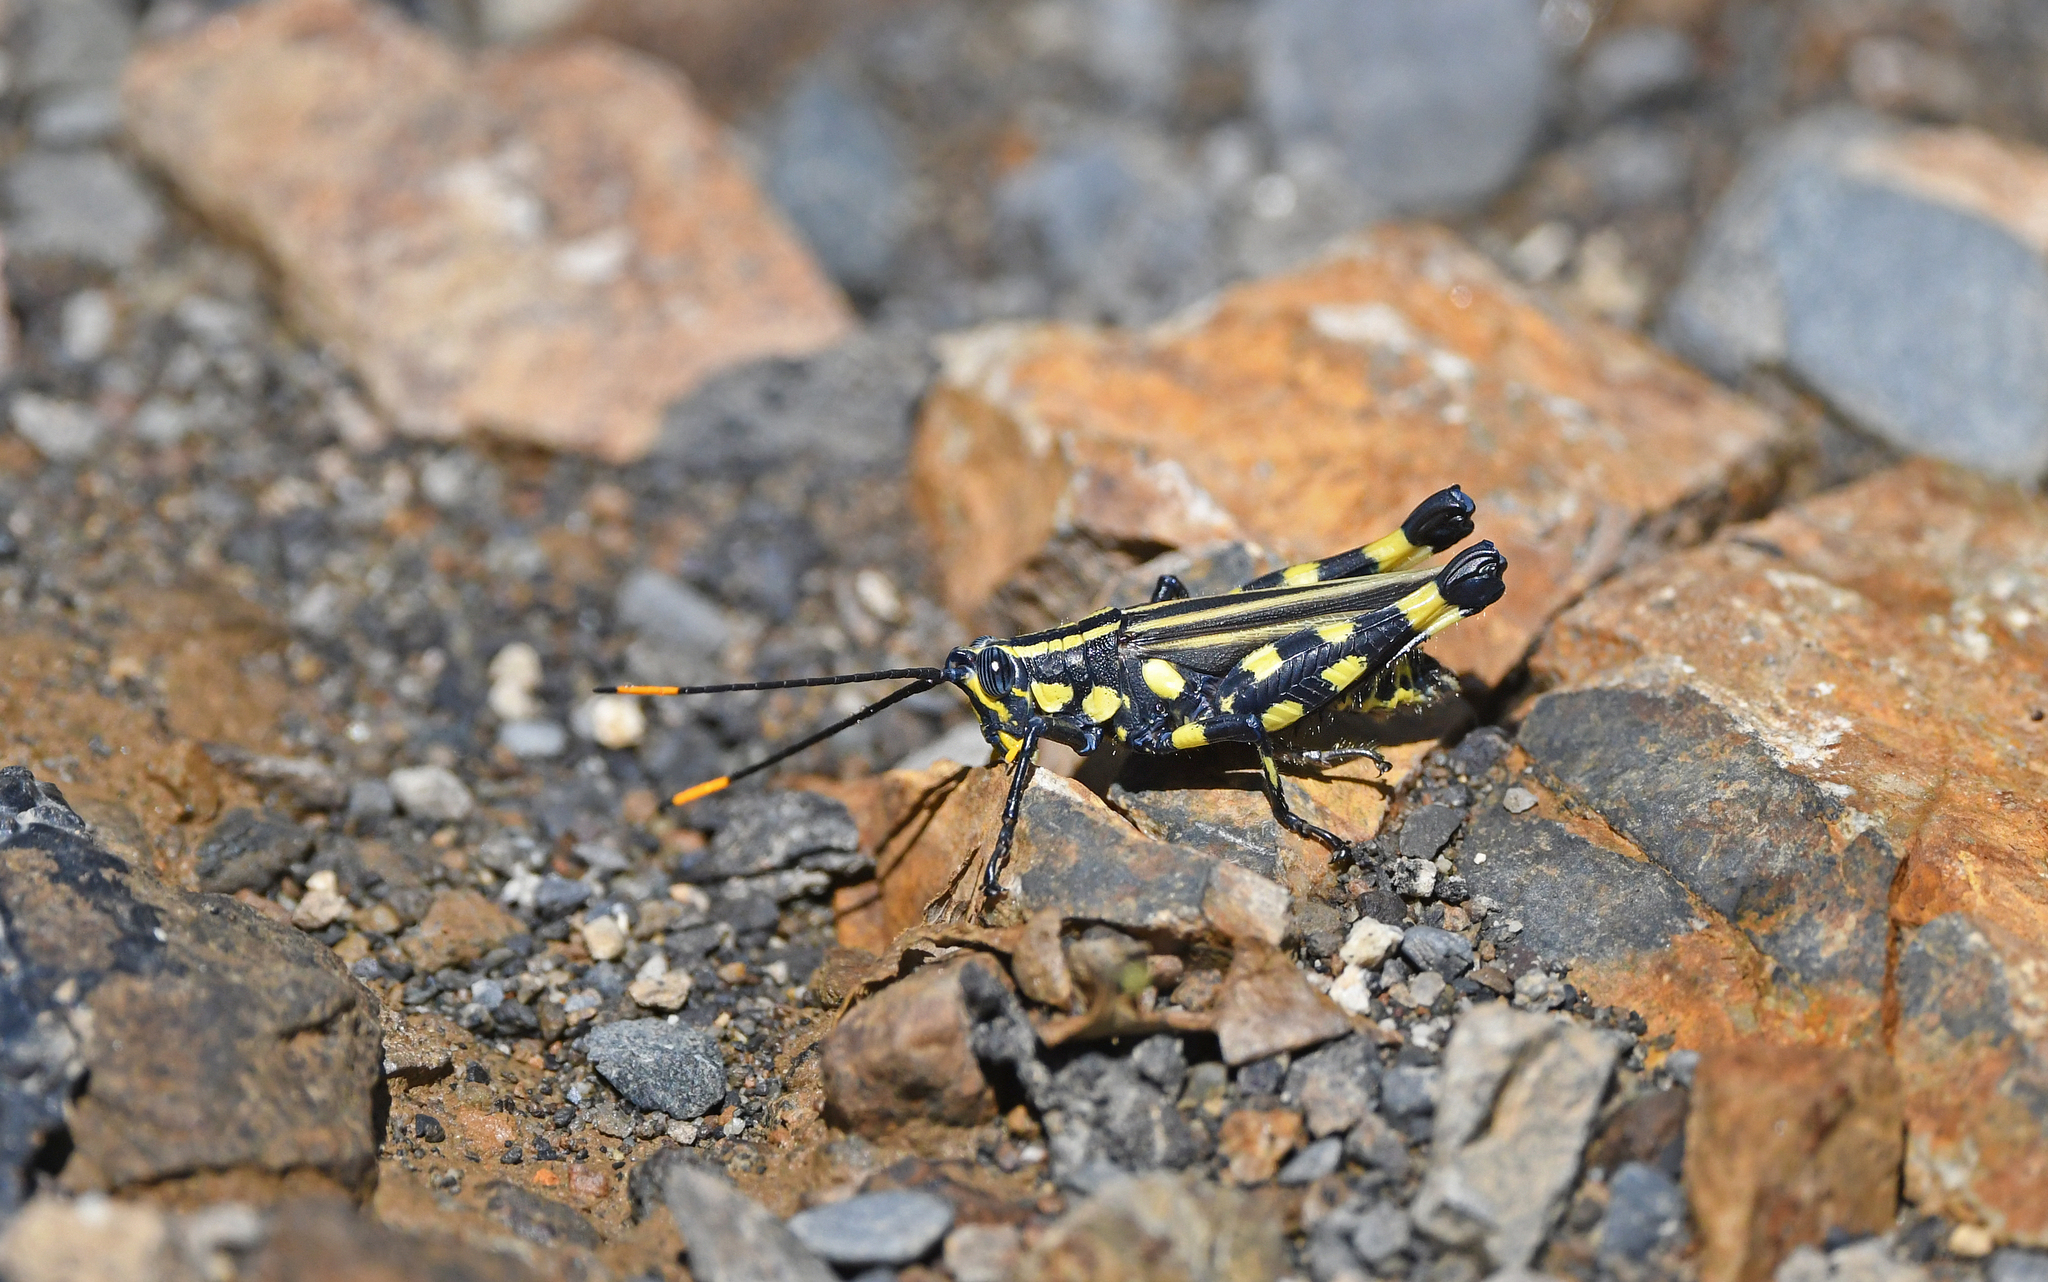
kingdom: Animalia
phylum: Arthropoda
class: Insecta
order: Orthoptera
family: Acrididae
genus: Rhopsotettix
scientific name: Rhopsotettix consummatus
